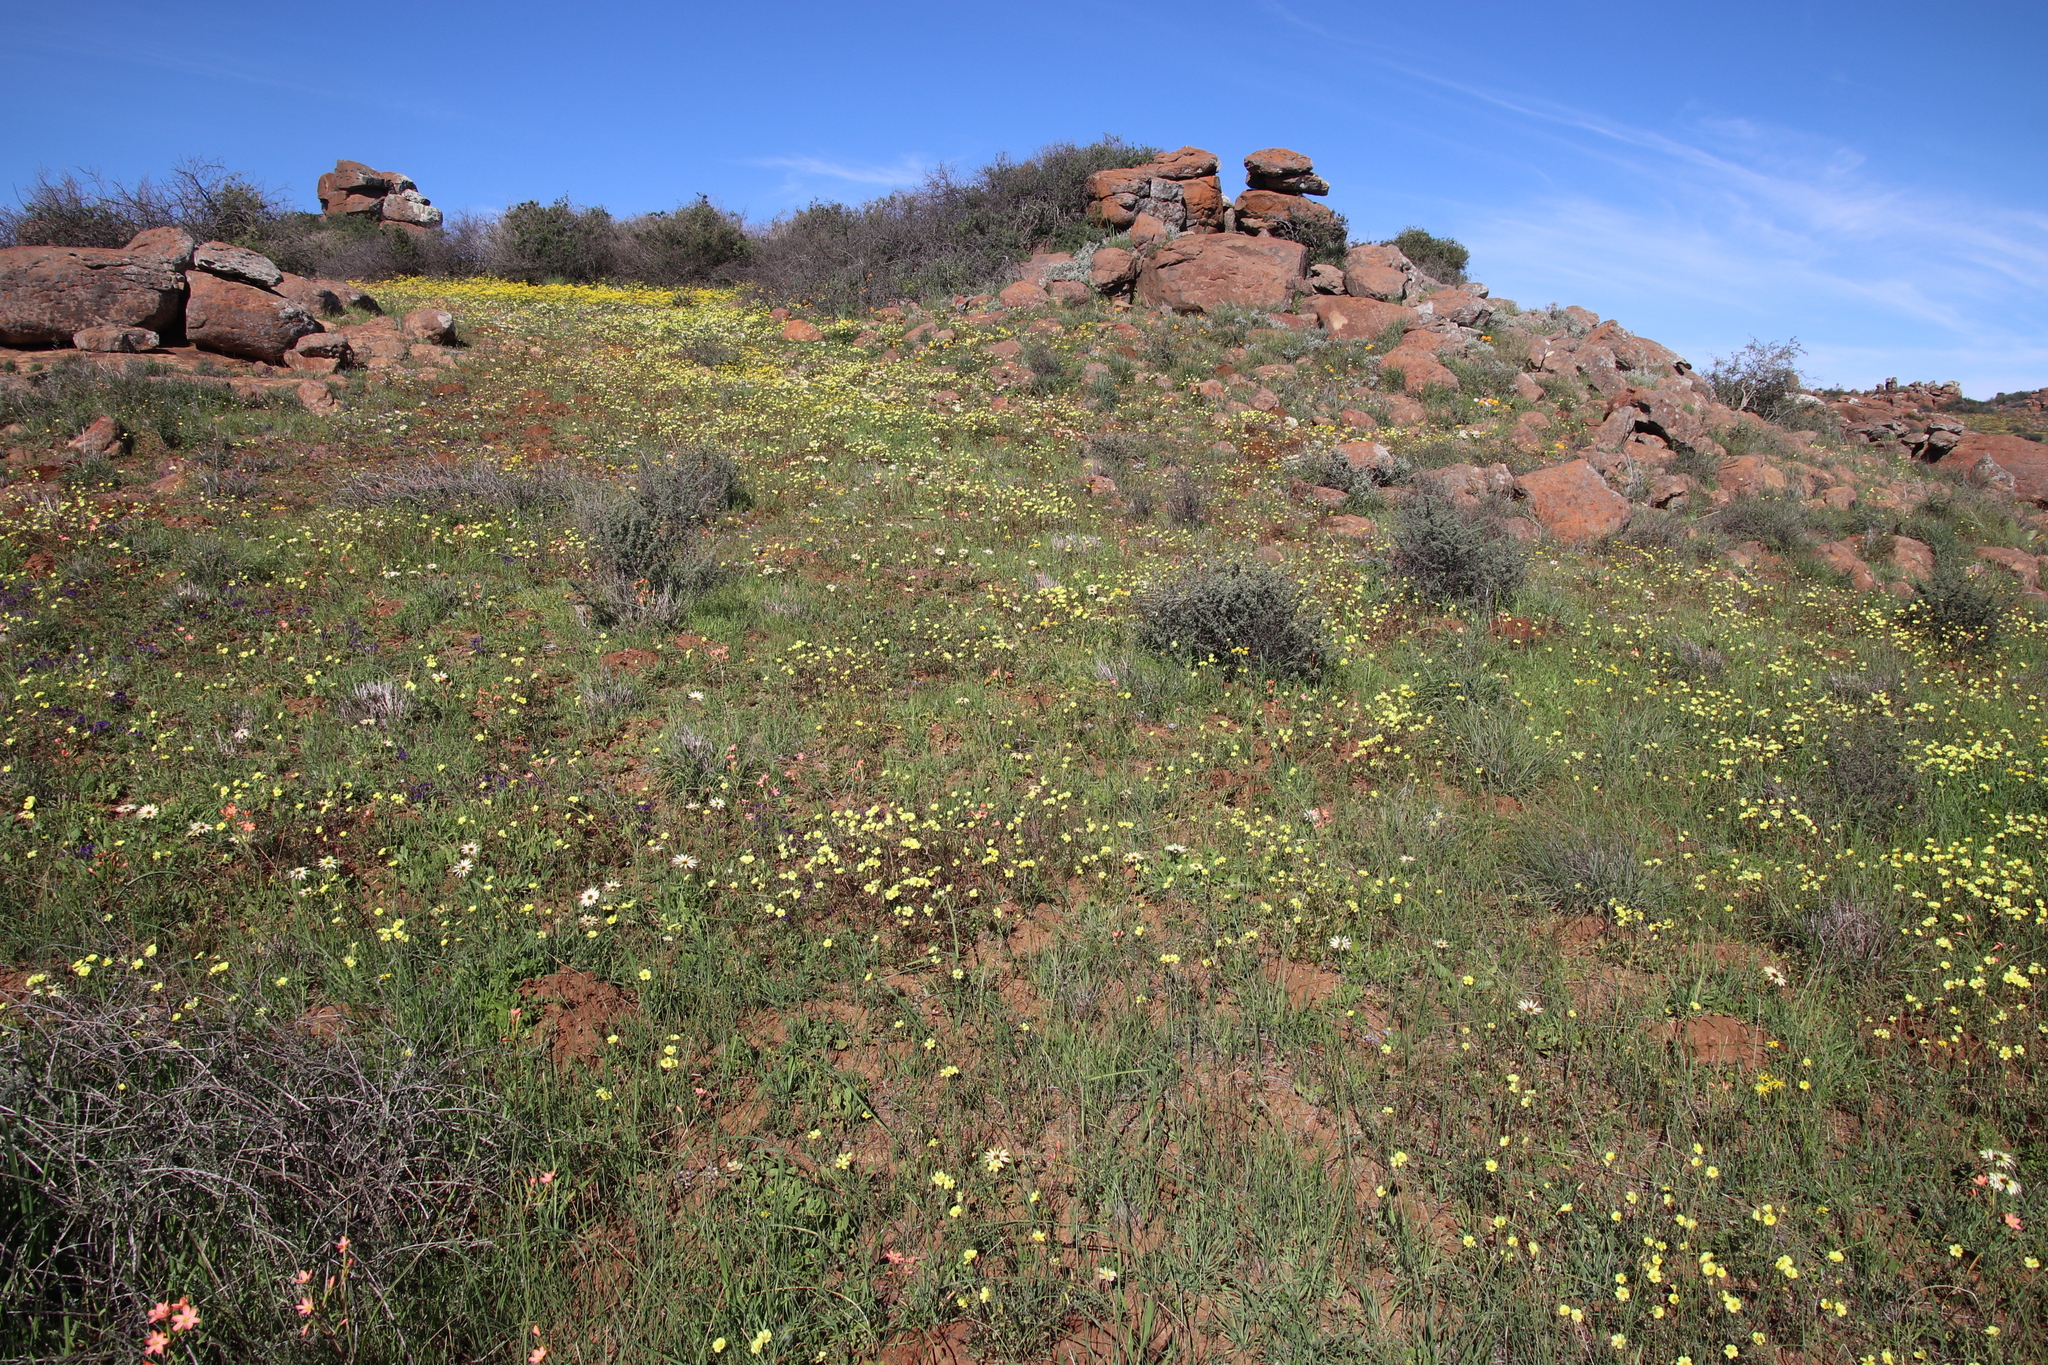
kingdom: Plantae
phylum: Tracheophyta
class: Magnoliopsida
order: Oxalidales
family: Oxalidaceae
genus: Oxalis
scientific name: Oxalis pes-caprae
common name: Bermuda-buttercup
